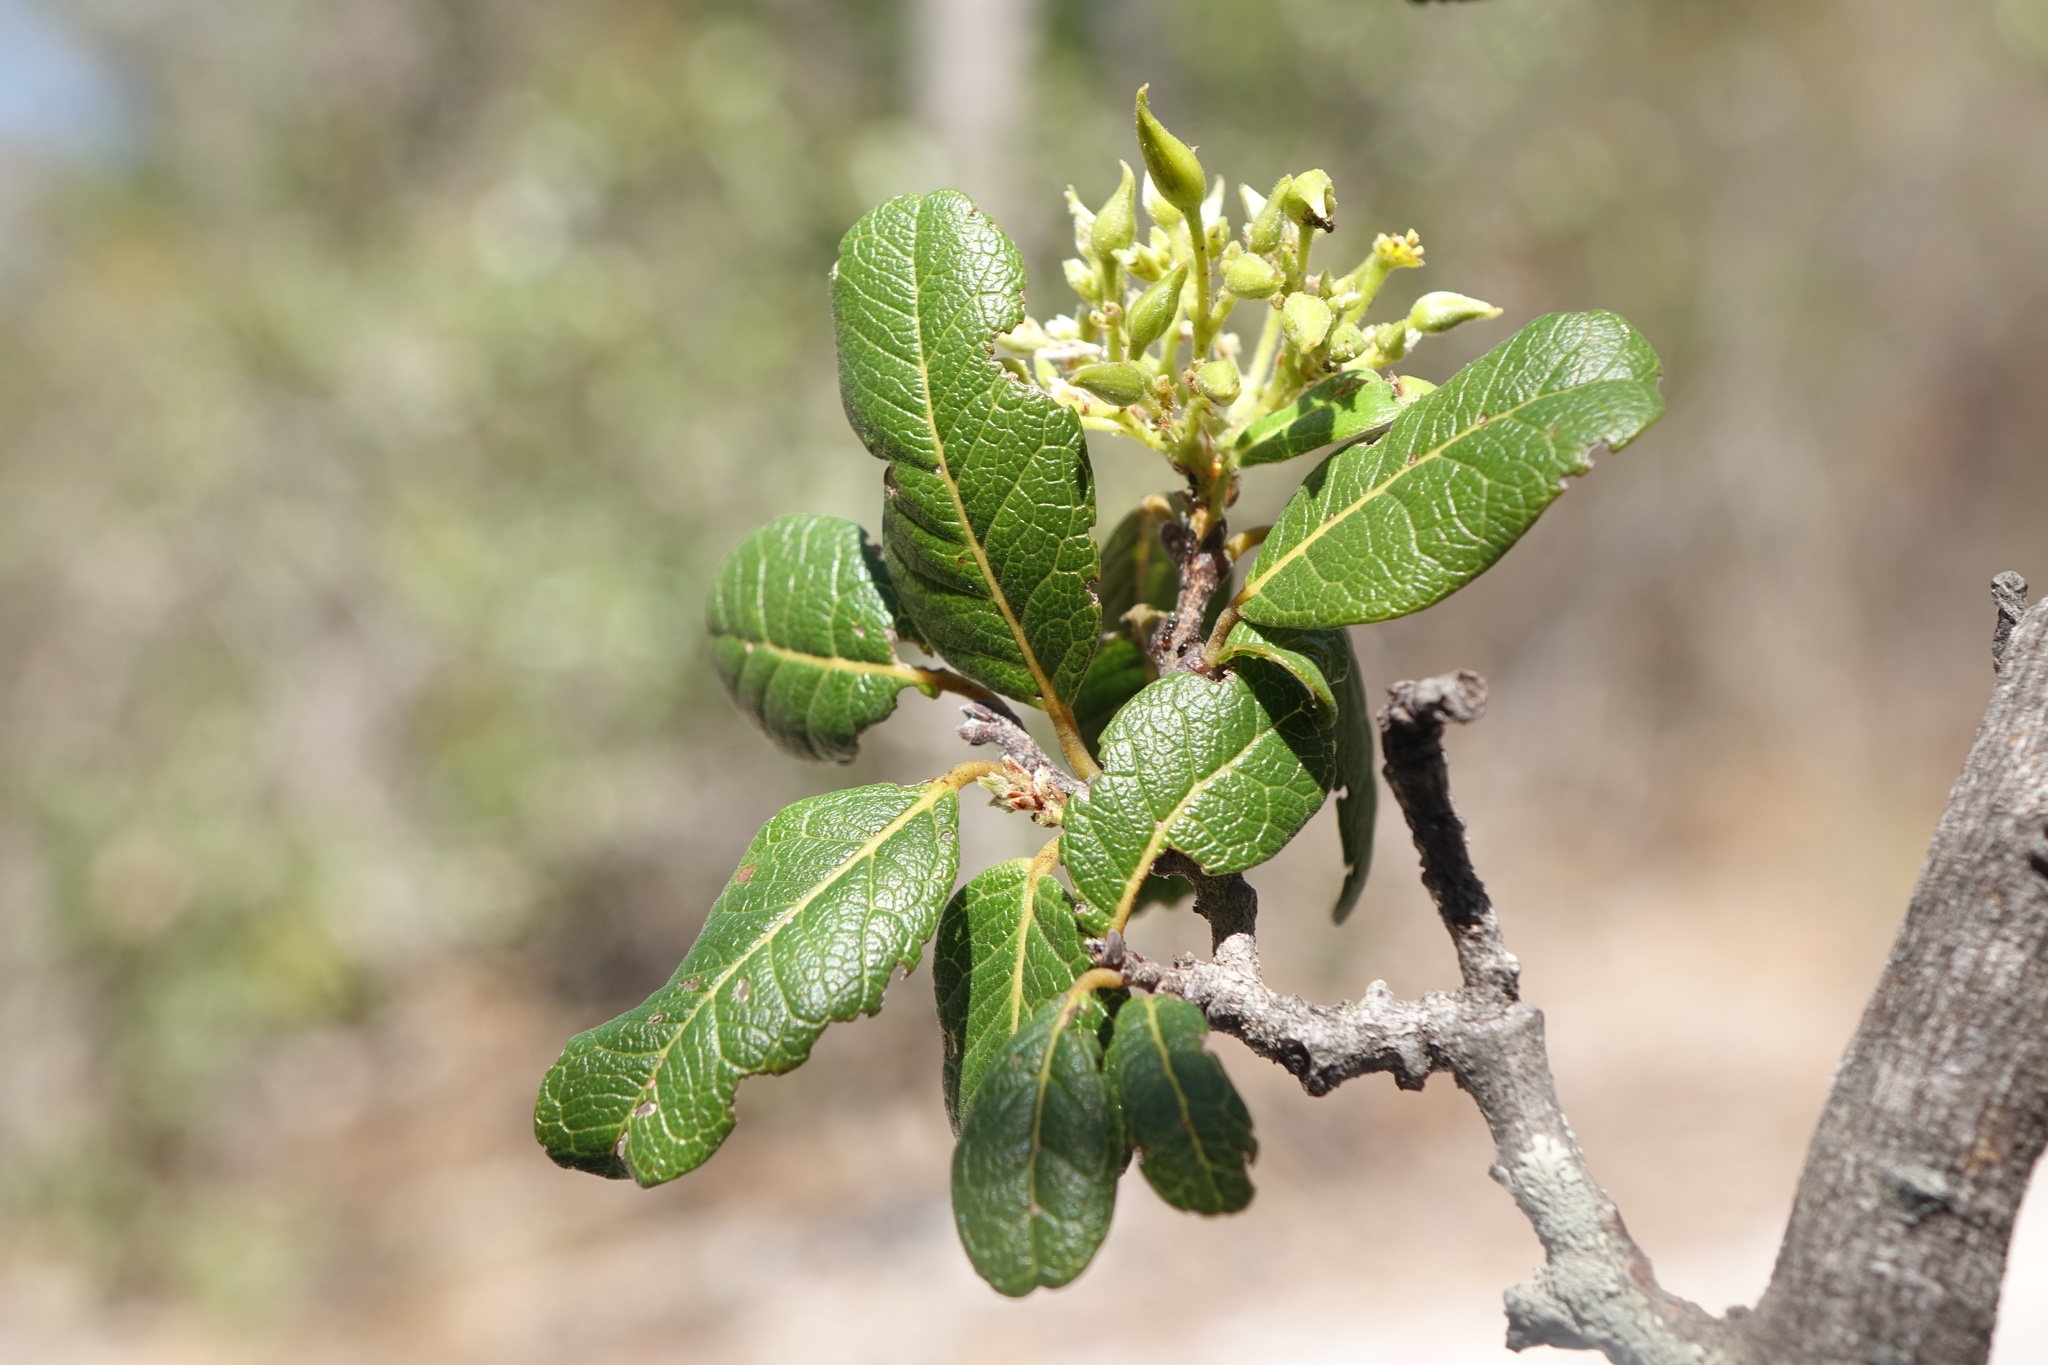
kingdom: Plantae
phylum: Tracheophyta
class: Magnoliopsida
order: Fabales
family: Fabaceae
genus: Baudouinia
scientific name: Baudouinia fluggeiformis
